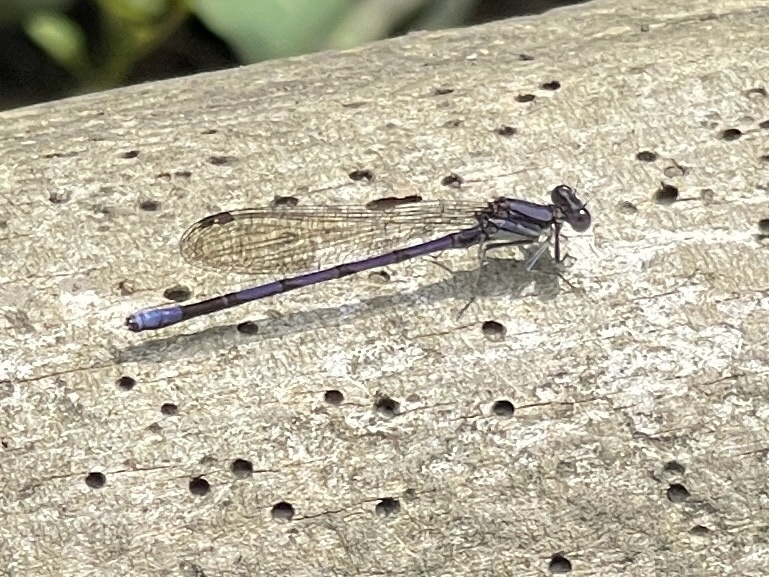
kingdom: Animalia
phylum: Arthropoda
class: Insecta
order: Odonata
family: Coenagrionidae
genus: Argia
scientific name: Argia fumipennis
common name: Variable dancer
